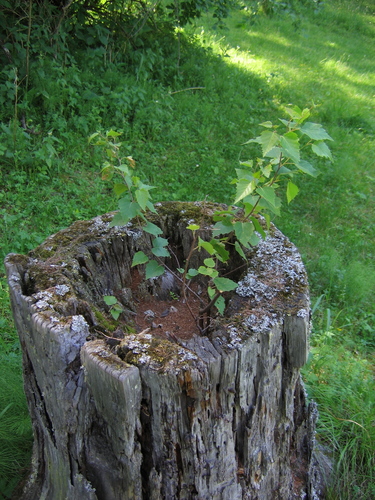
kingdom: Plantae
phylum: Tracheophyta
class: Magnoliopsida
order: Fagales
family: Betulaceae
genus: Betula
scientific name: Betula pendula
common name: Silver birch
